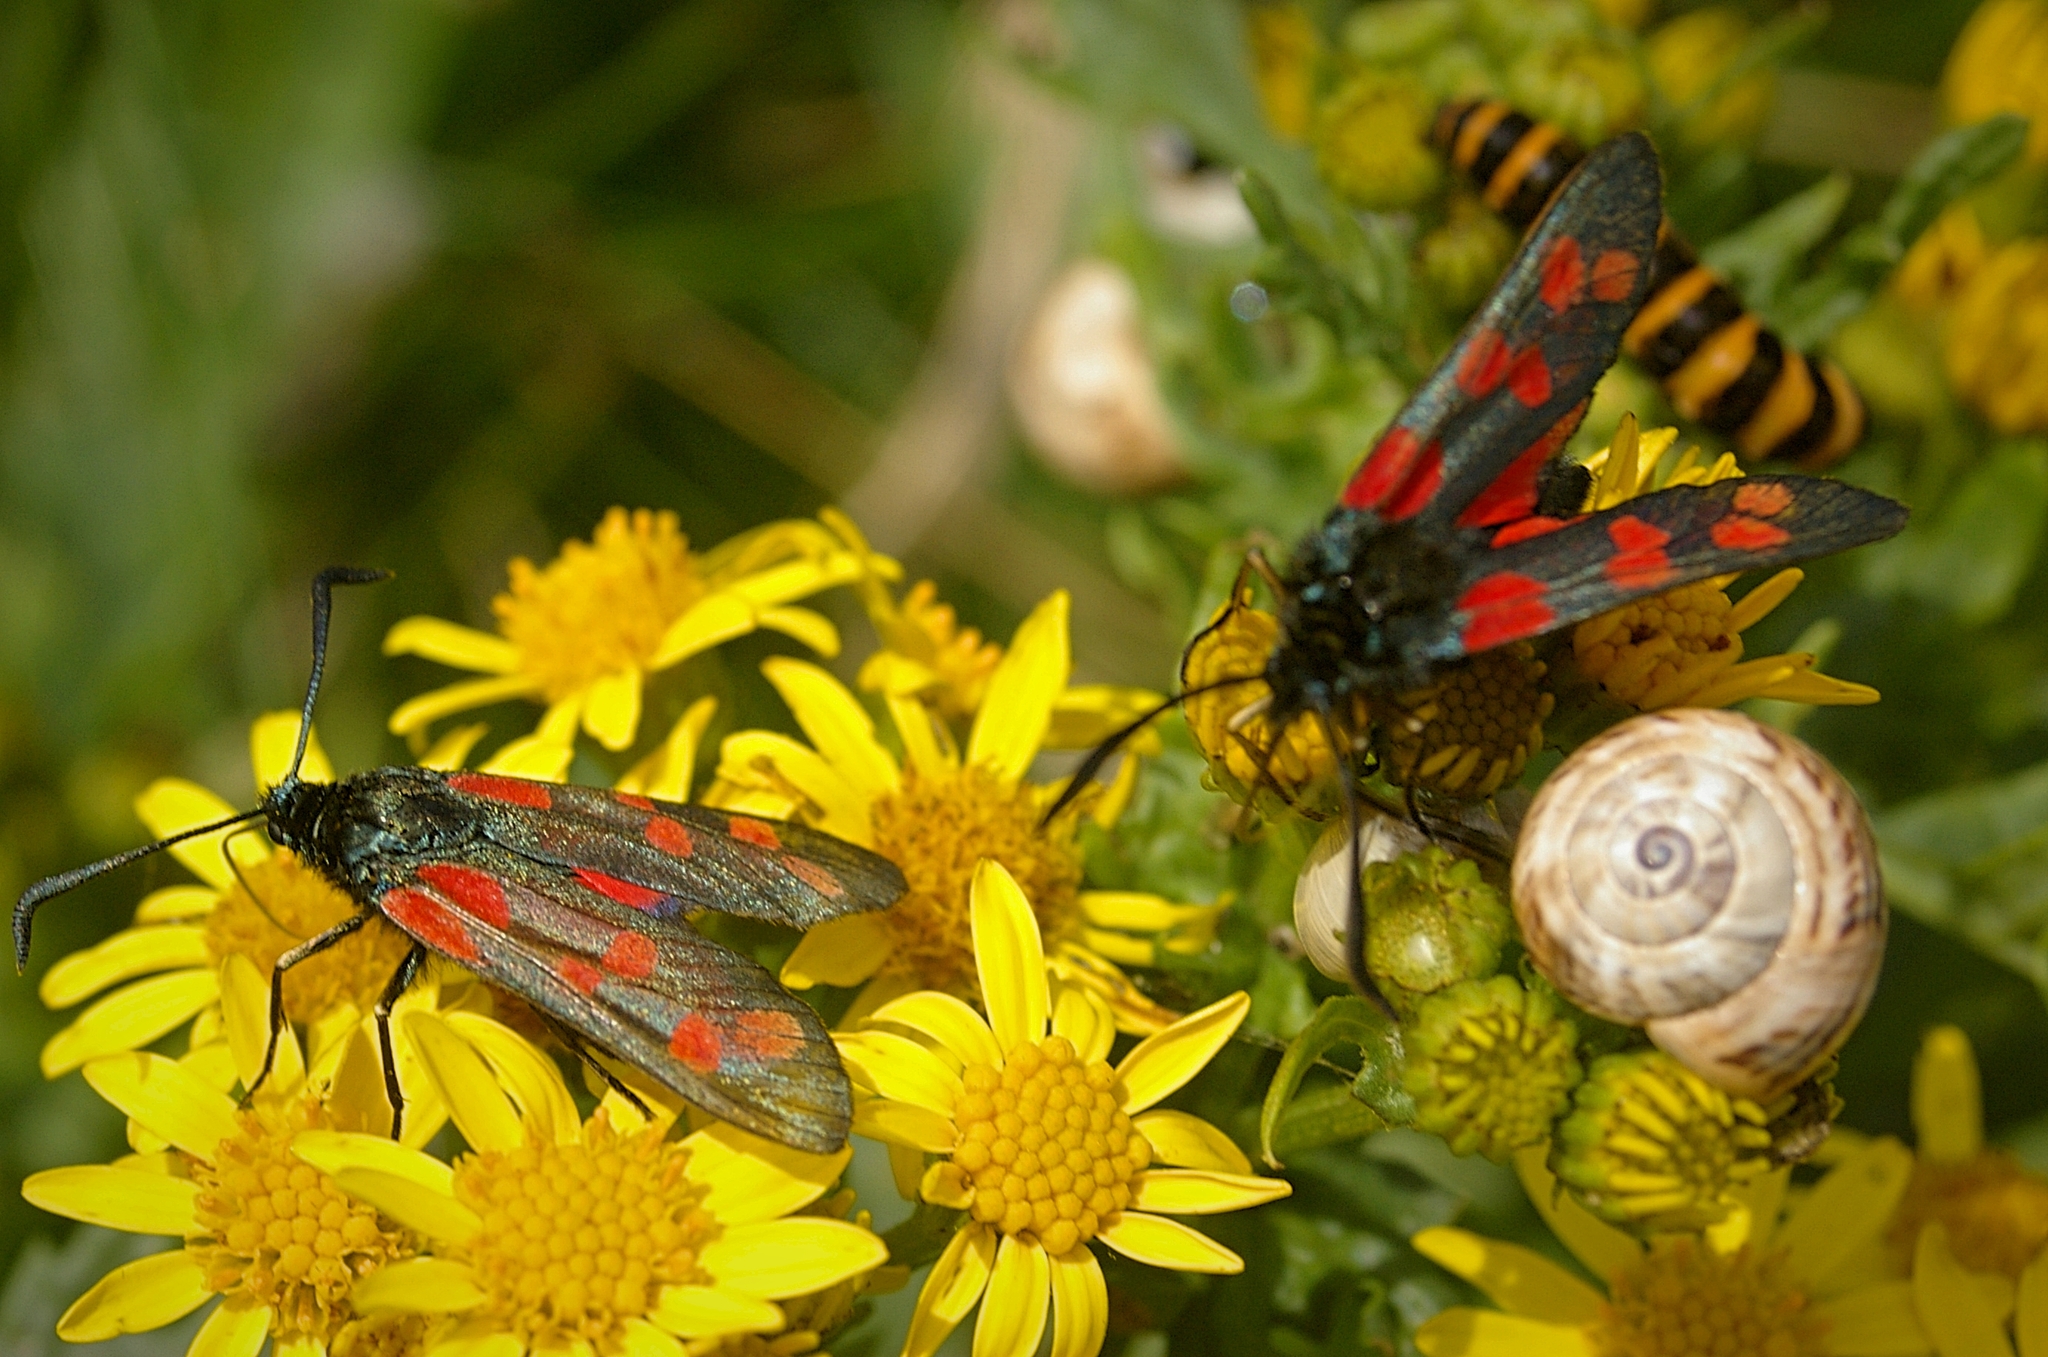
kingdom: Animalia
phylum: Mollusca
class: Gastropoda
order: Stylommatophora
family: Helicidae
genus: Theba
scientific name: Theba pisana
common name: White snail
